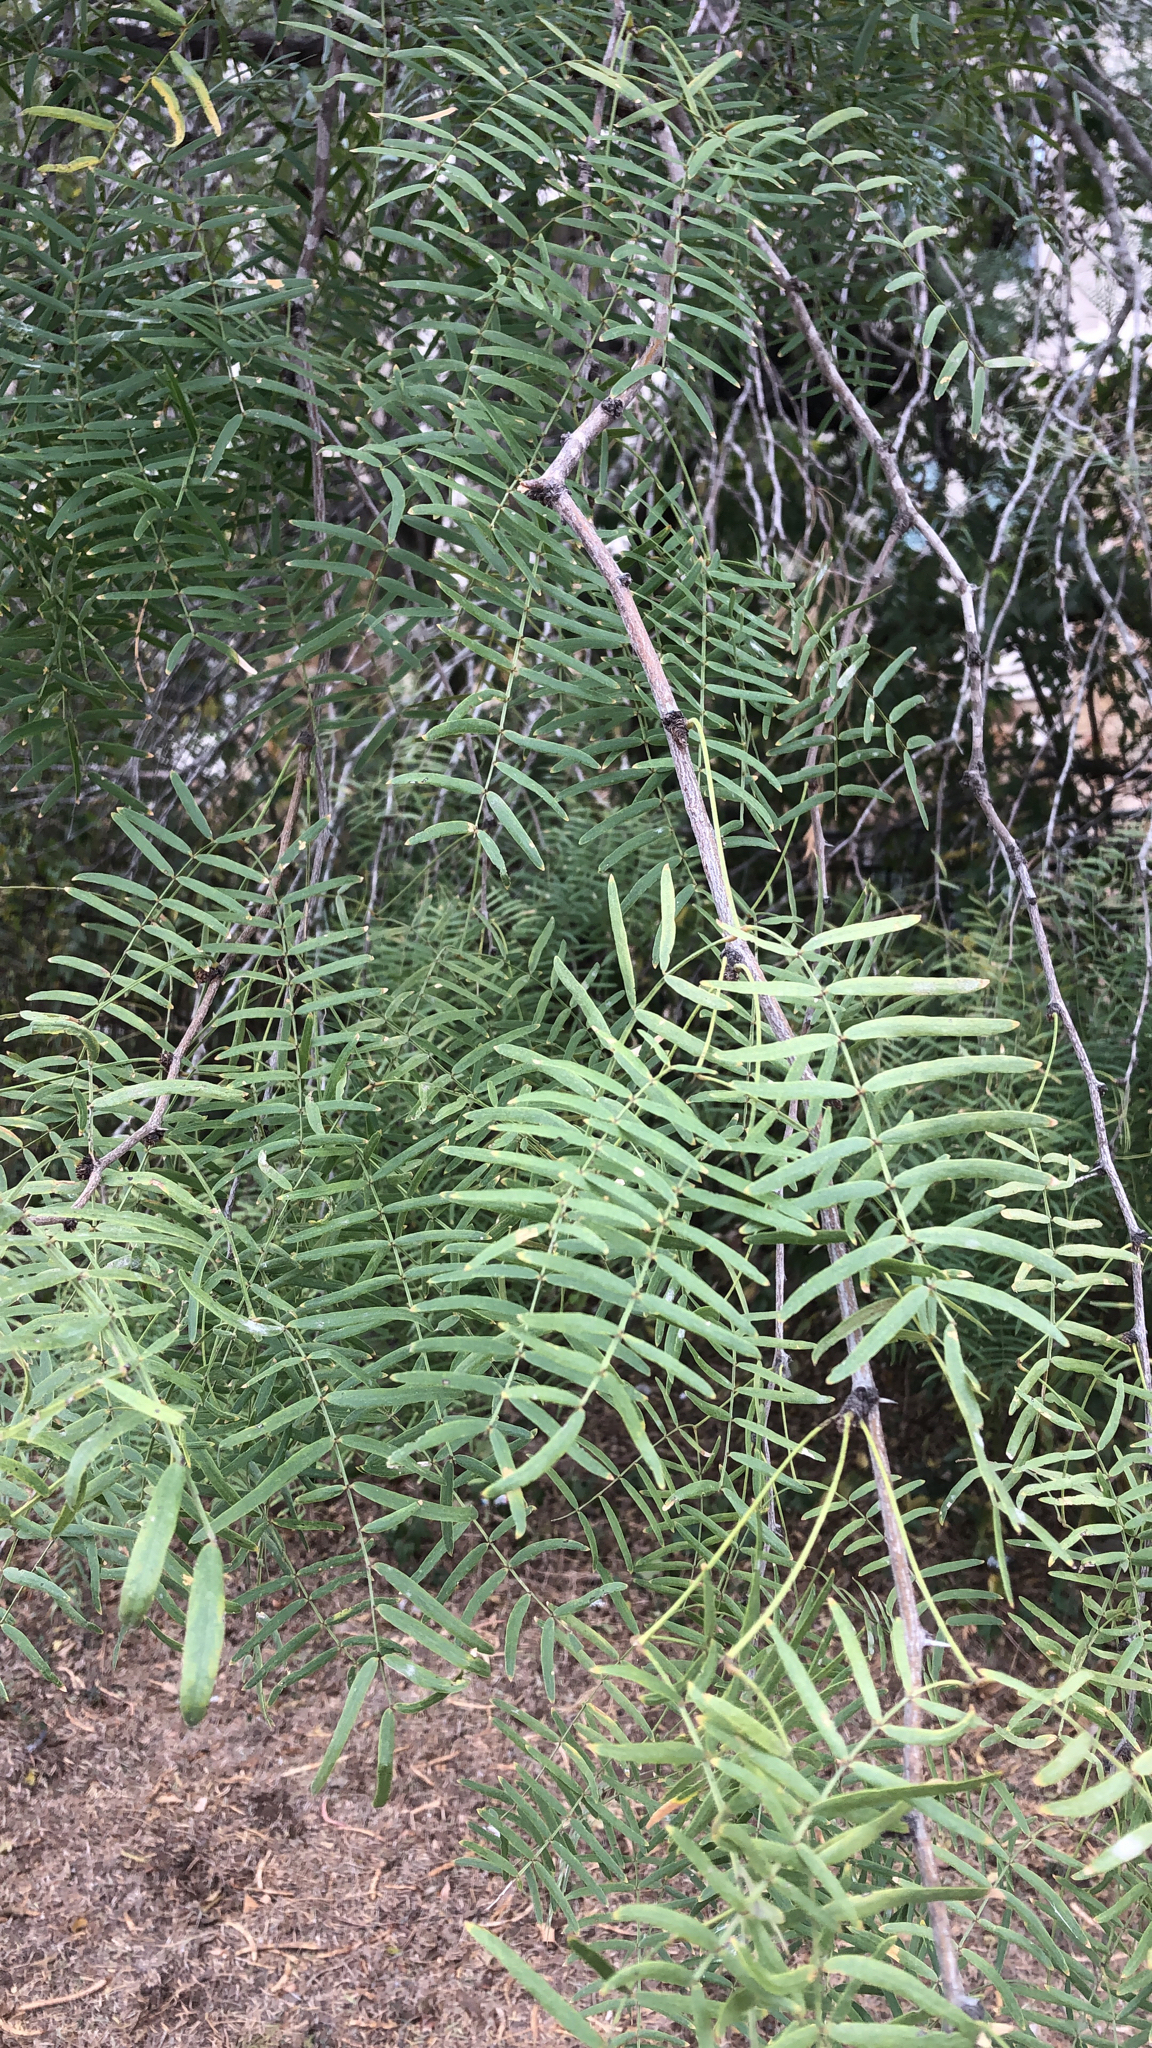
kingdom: Plantae
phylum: Tracheophyta
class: Magnoliopsida
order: Fabales
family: Fabaceae
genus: Prosopis
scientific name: Prosopis glandulosa
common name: Honey mesquite
